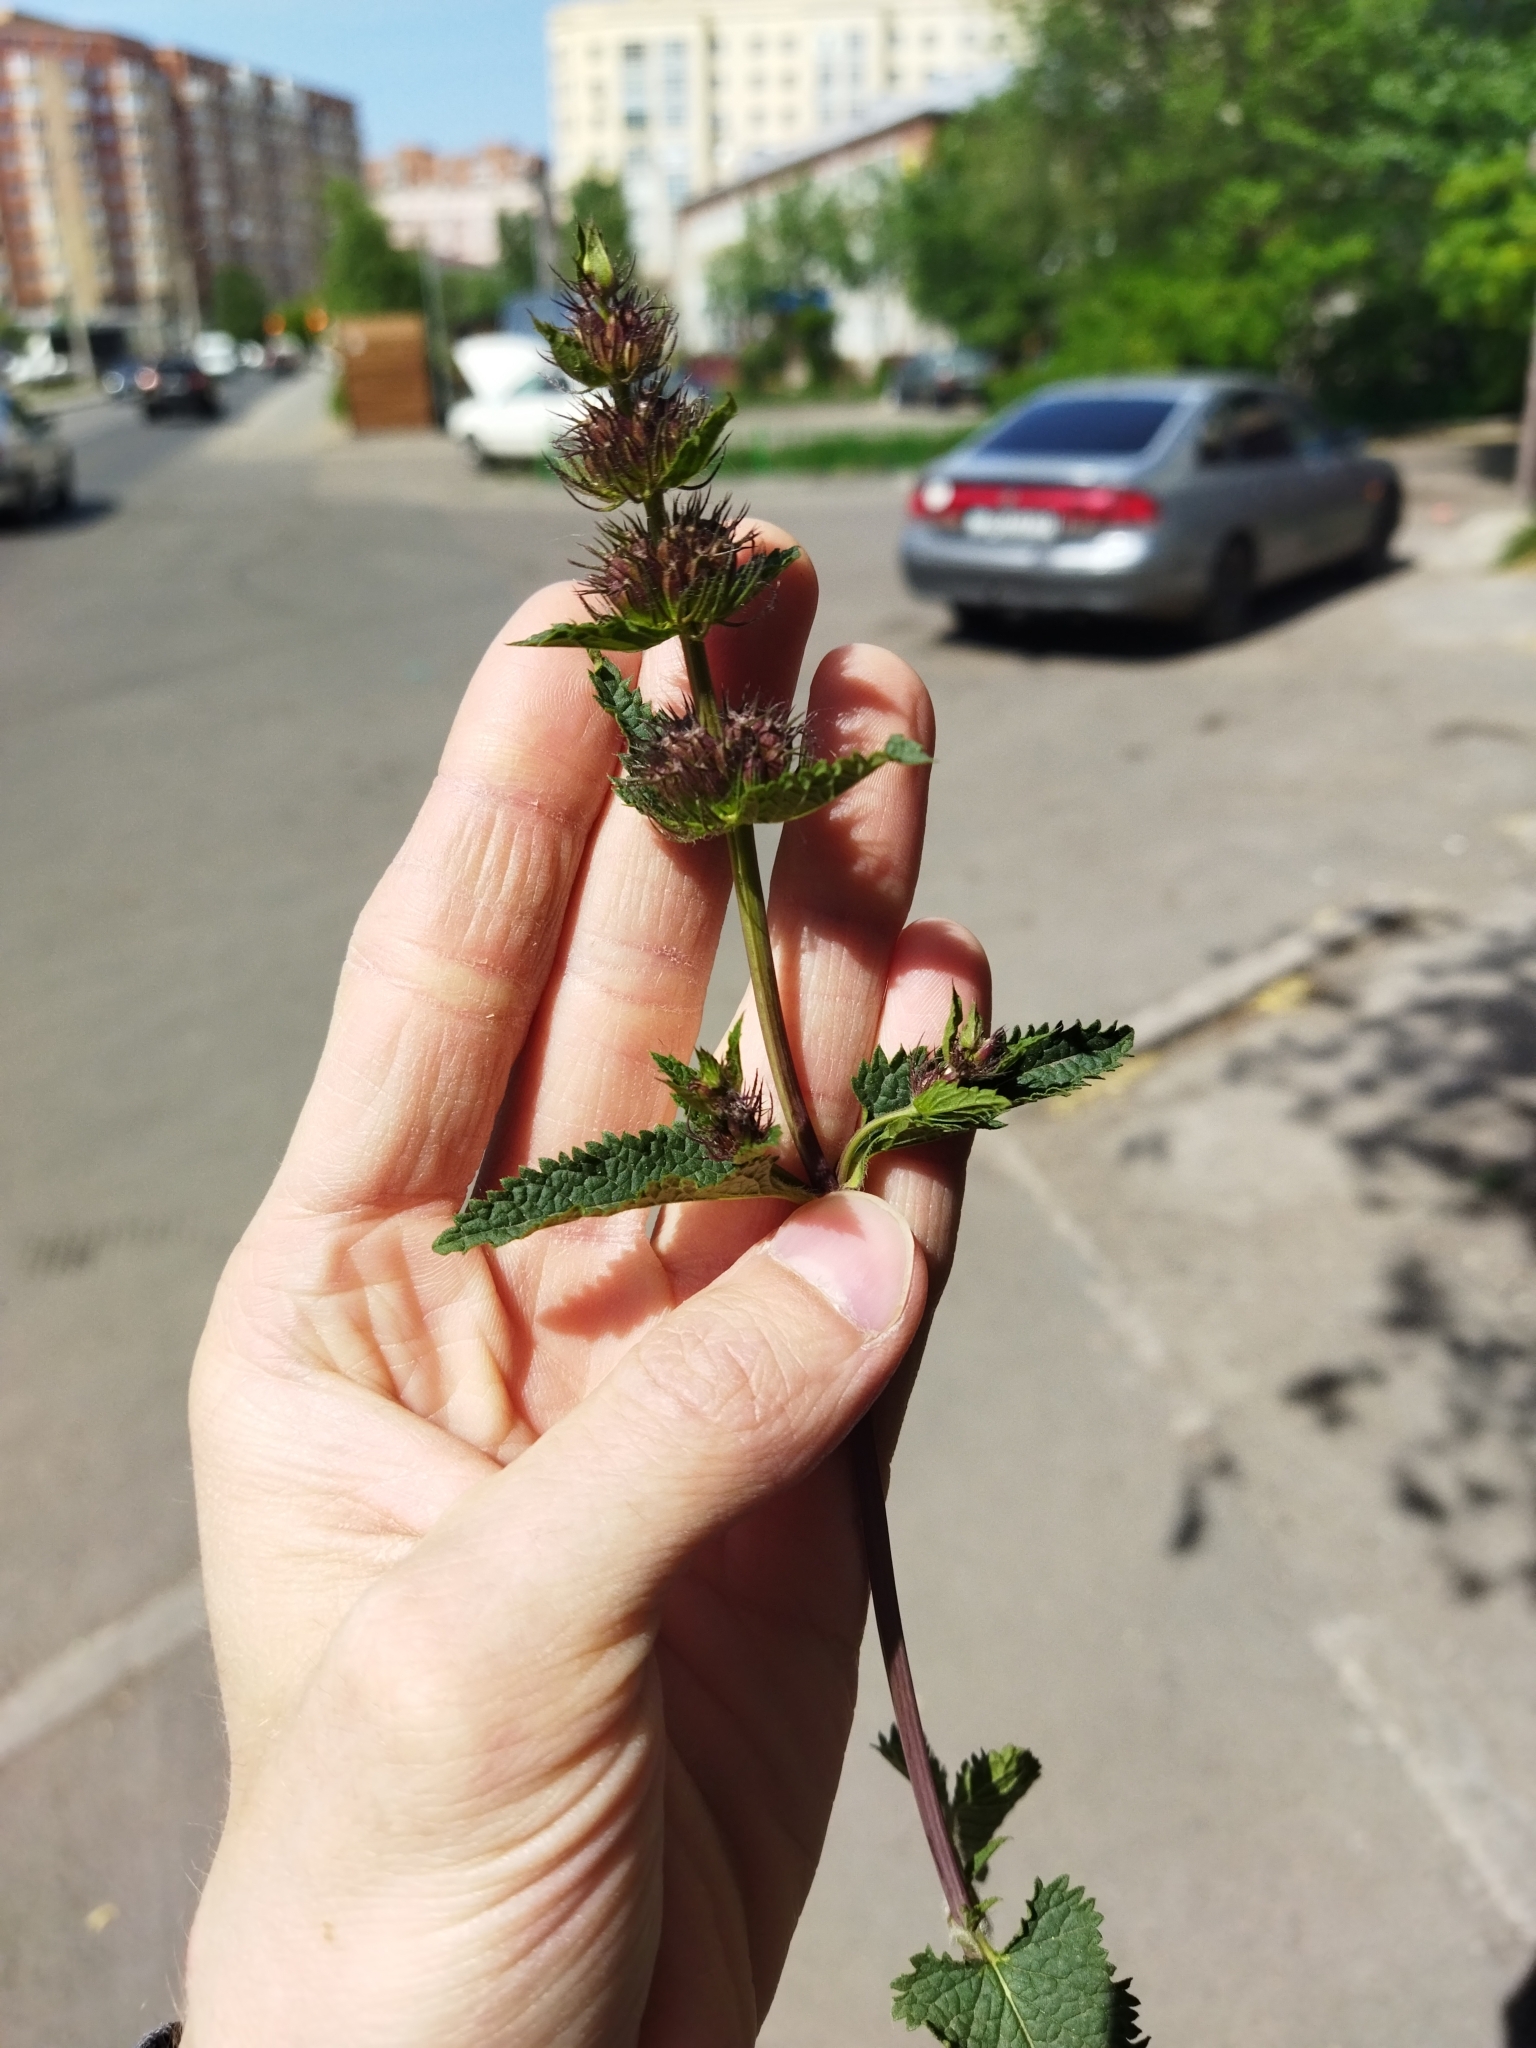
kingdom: Plantae
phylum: Tracheophyta
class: Magnoliopsida
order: Lamiales
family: Lamiaceae
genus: Phlomoides
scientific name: Phlomoides tuberosa
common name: Tuberous jerusalem sage
